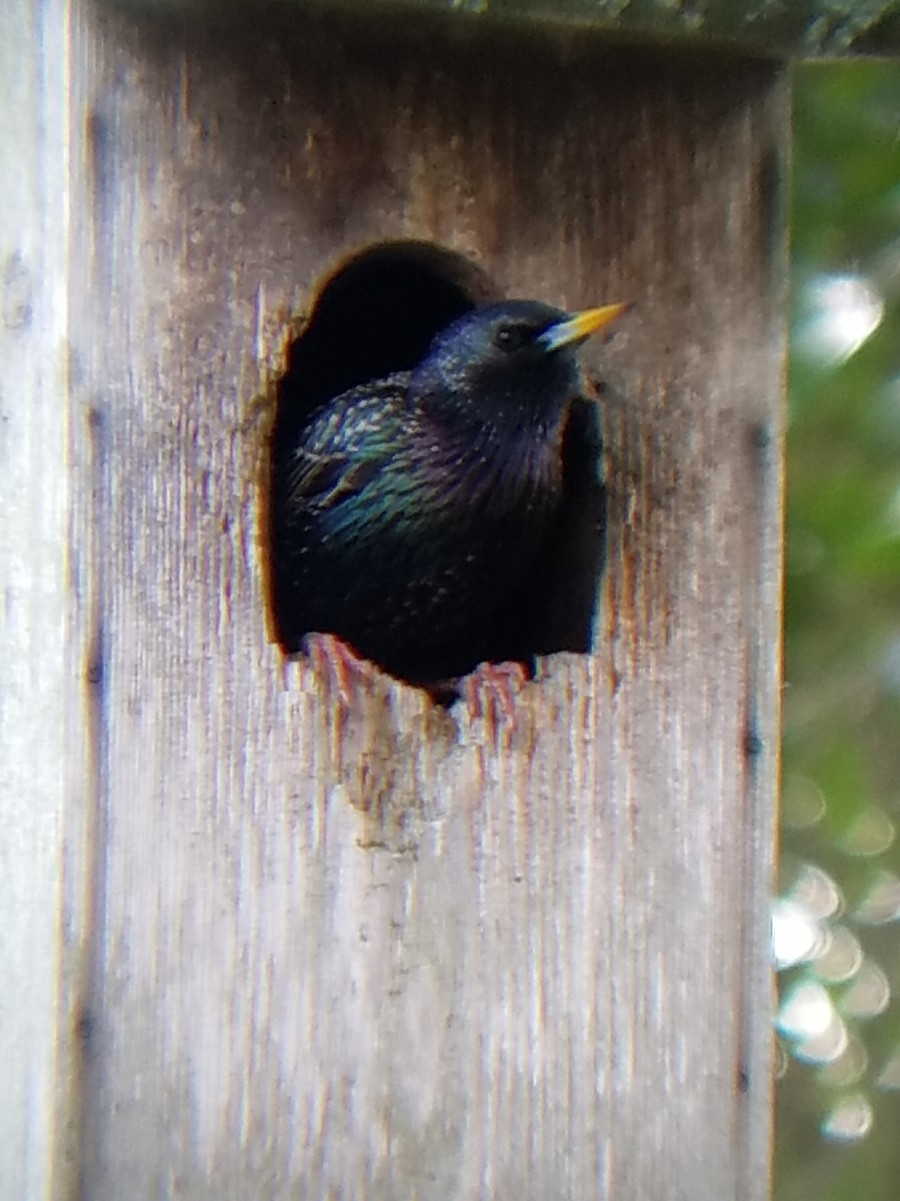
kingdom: Animalia
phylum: Chordata
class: Aves
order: Passeriformes
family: Sturnidae
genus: Sturnus
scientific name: Sturnus vulgaris
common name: Common starling
